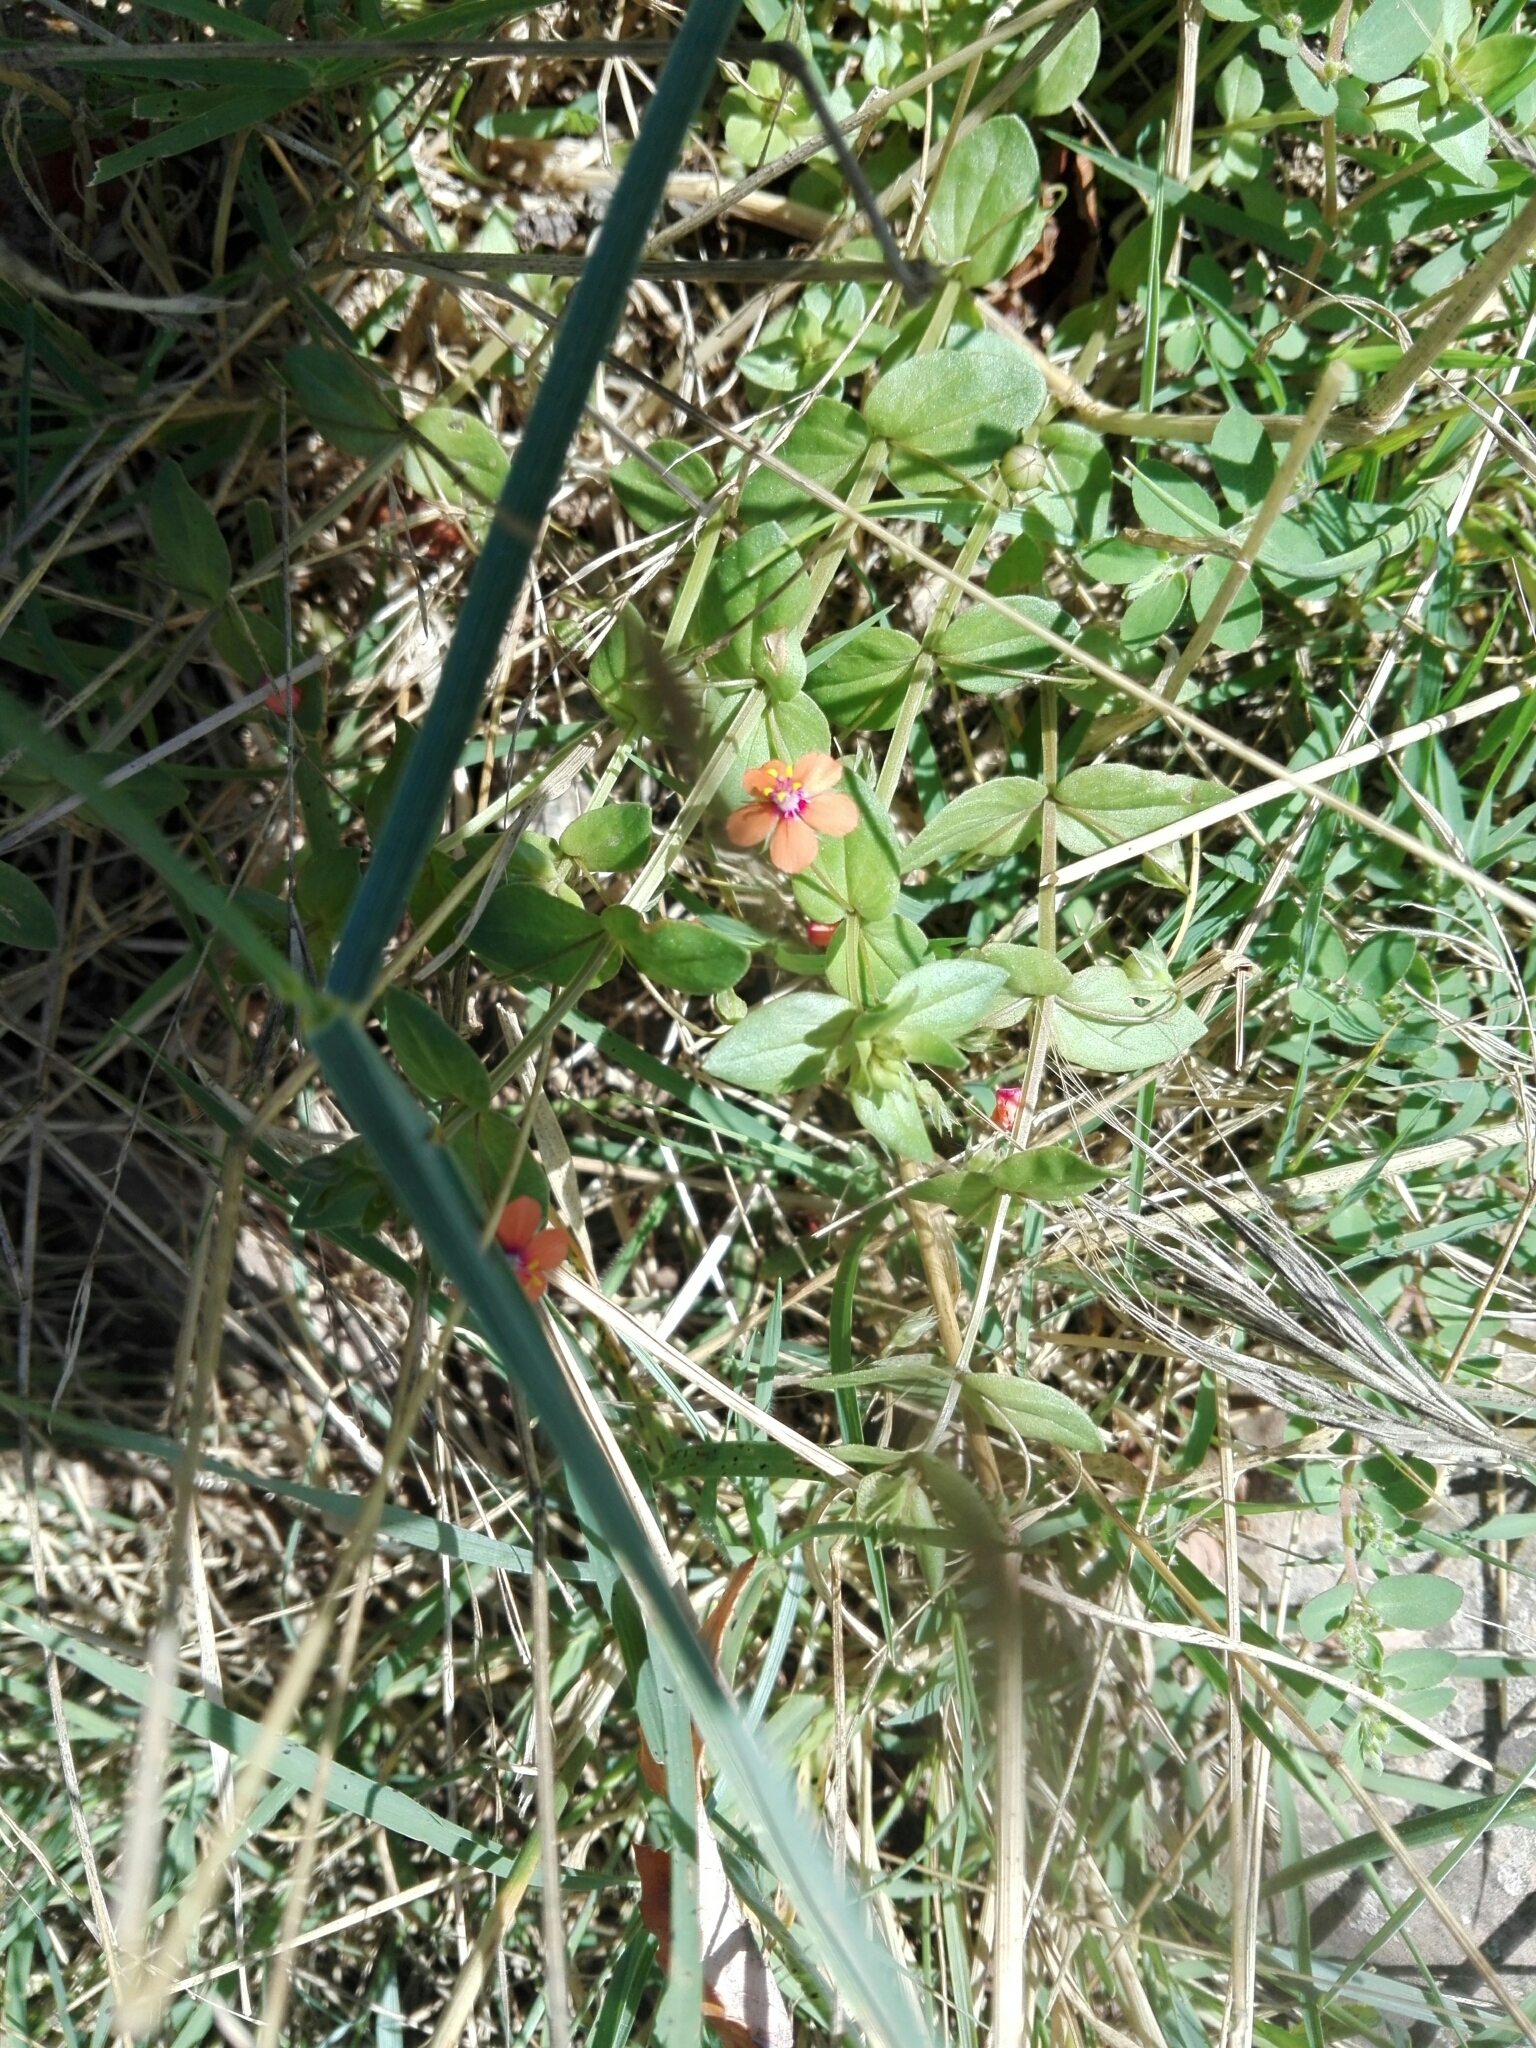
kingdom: Plantae
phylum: Tracheophyta
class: Magnoliopsida
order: Ericales
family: Primulaceae
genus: Lysimachia
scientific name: Lysimachia arvensis
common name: Scarlet pimpernel
